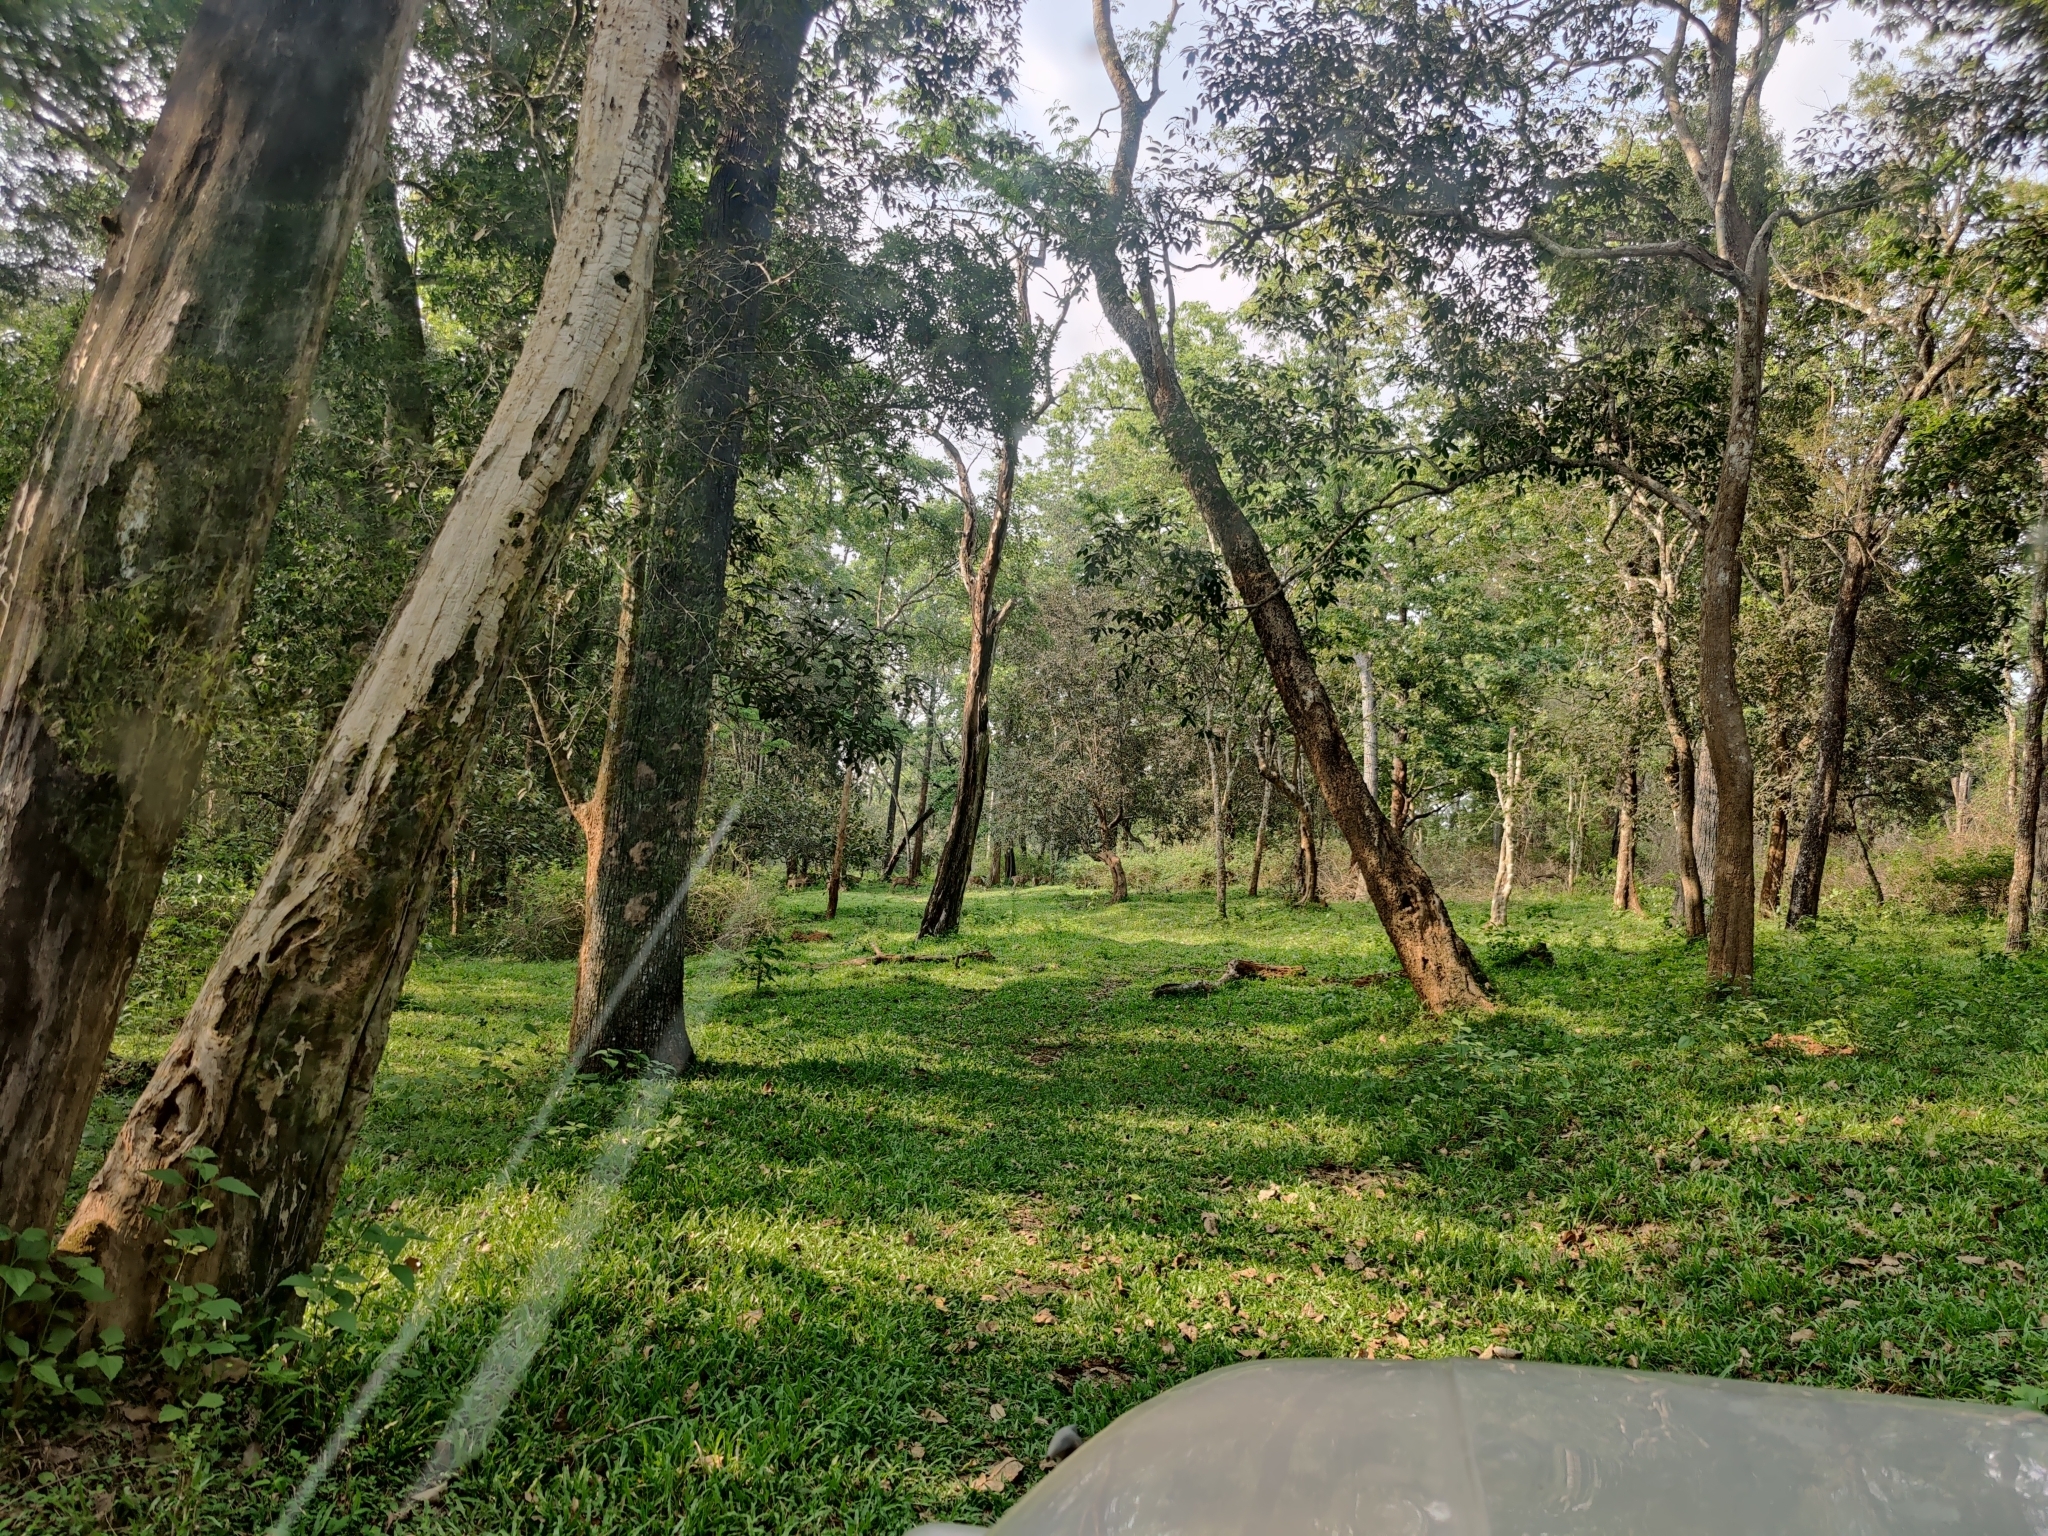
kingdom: Animalia
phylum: Chordata
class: Mammalia
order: Artiodactyla
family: Cervidae
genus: Axis
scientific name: Axis axis
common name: Chital
